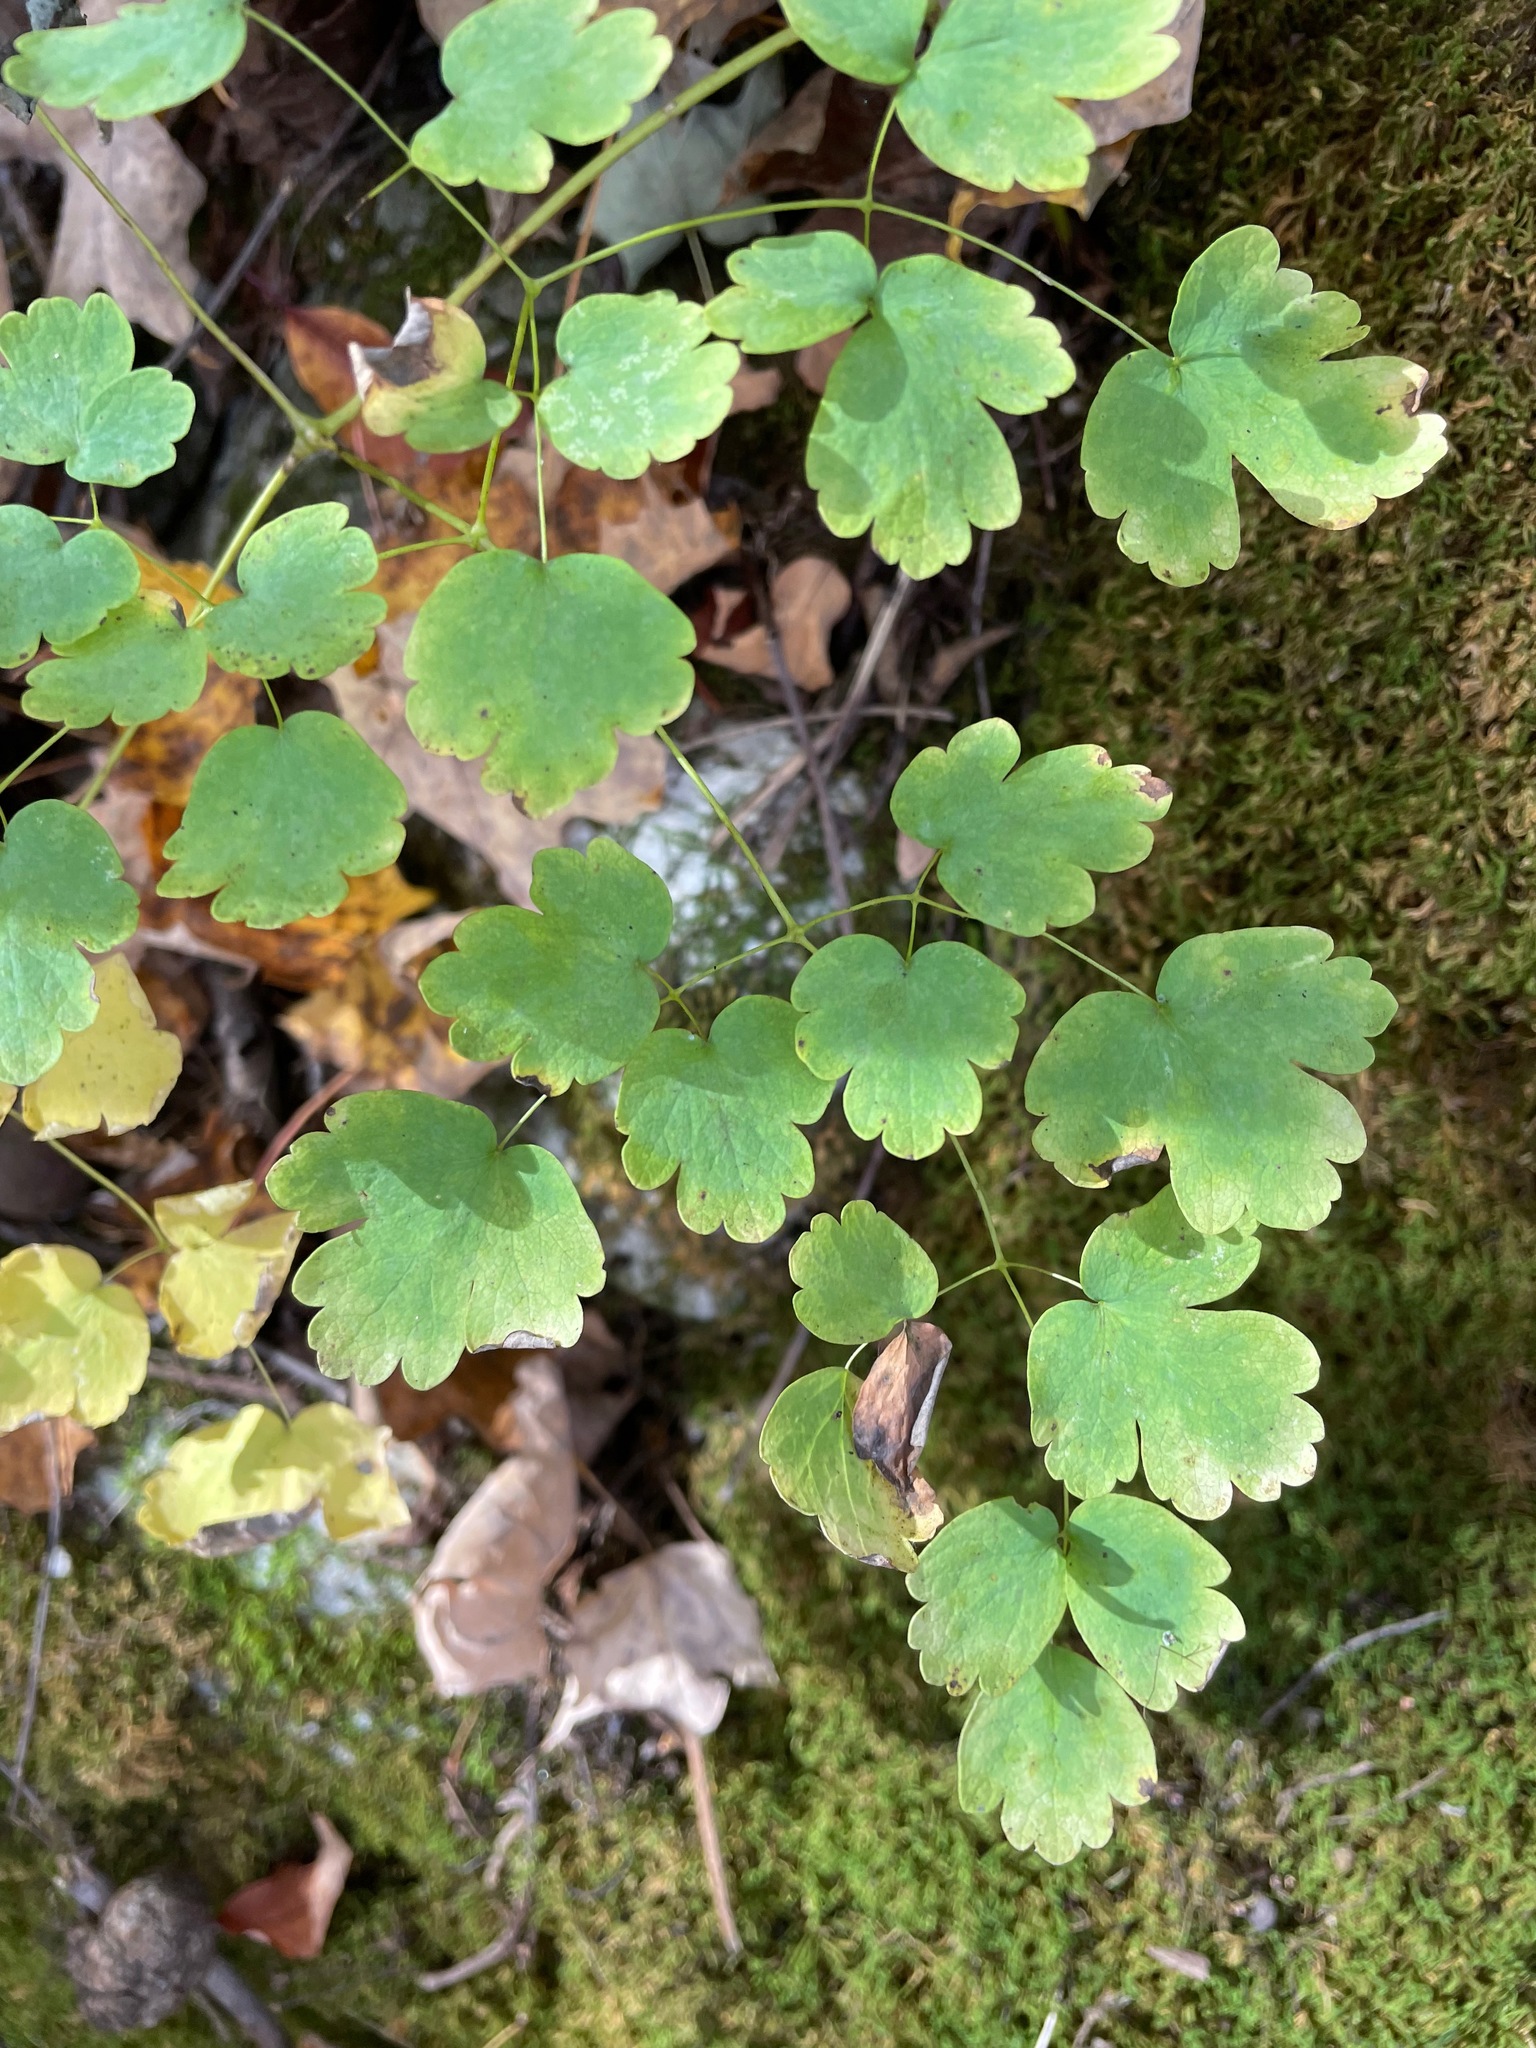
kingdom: Plantae
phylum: Tracheophyta
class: Magnoliopsida
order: Ranunculales
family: Ranunculaceae
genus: Thalictrum
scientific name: Thalictrum dioicum
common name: Early meadow-rue
